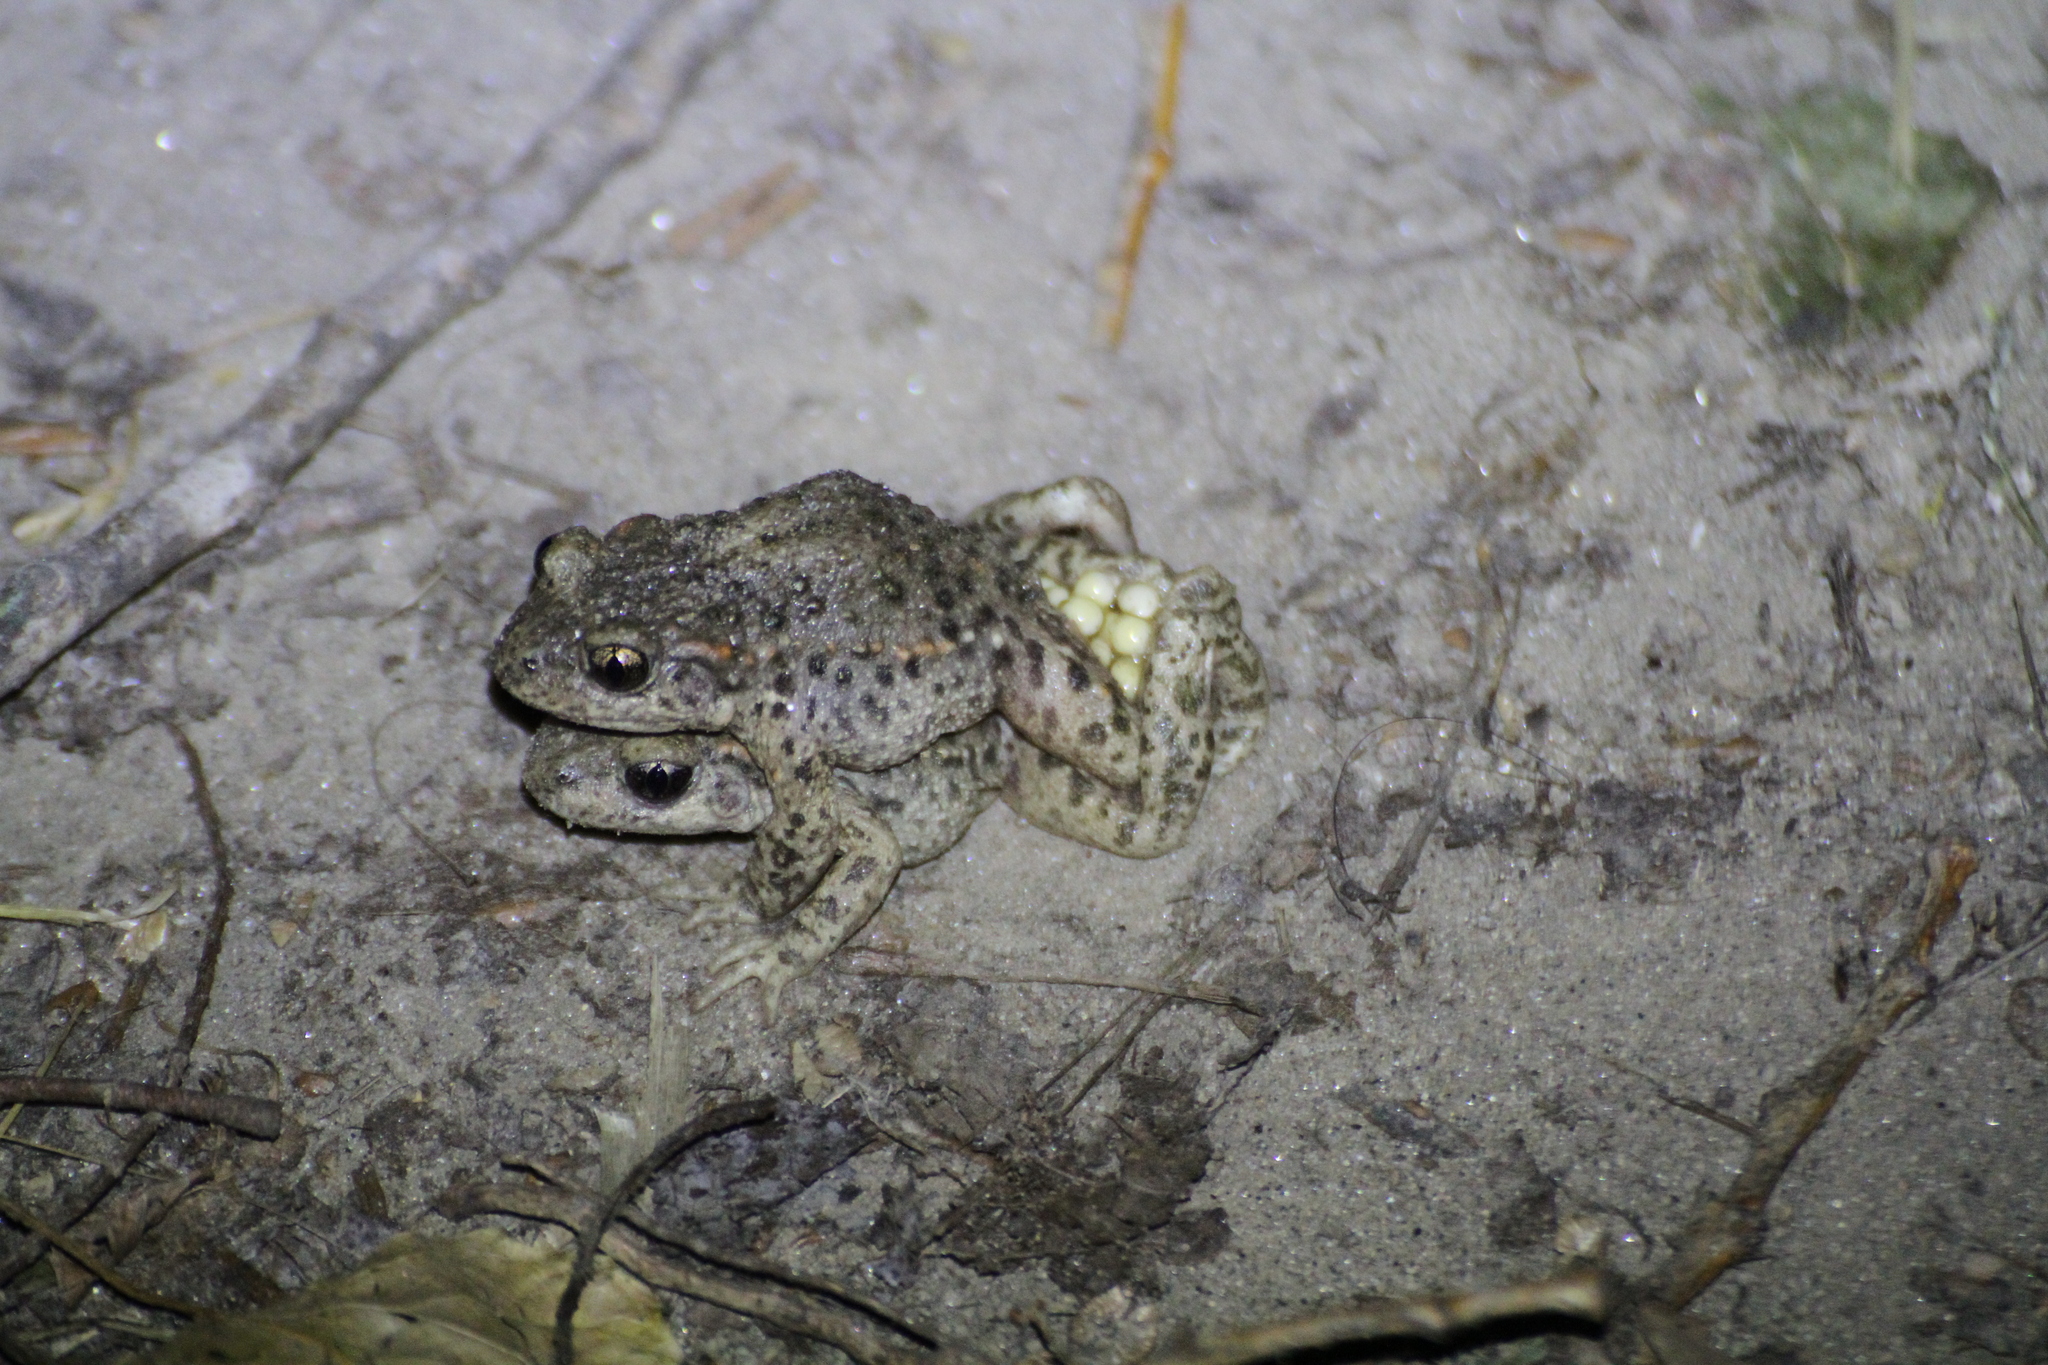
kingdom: Animalia
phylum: Chordata
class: Amphibia
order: Anura
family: Alytidae
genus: Alytes
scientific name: Alytes obstetricans
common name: Midwife toad
